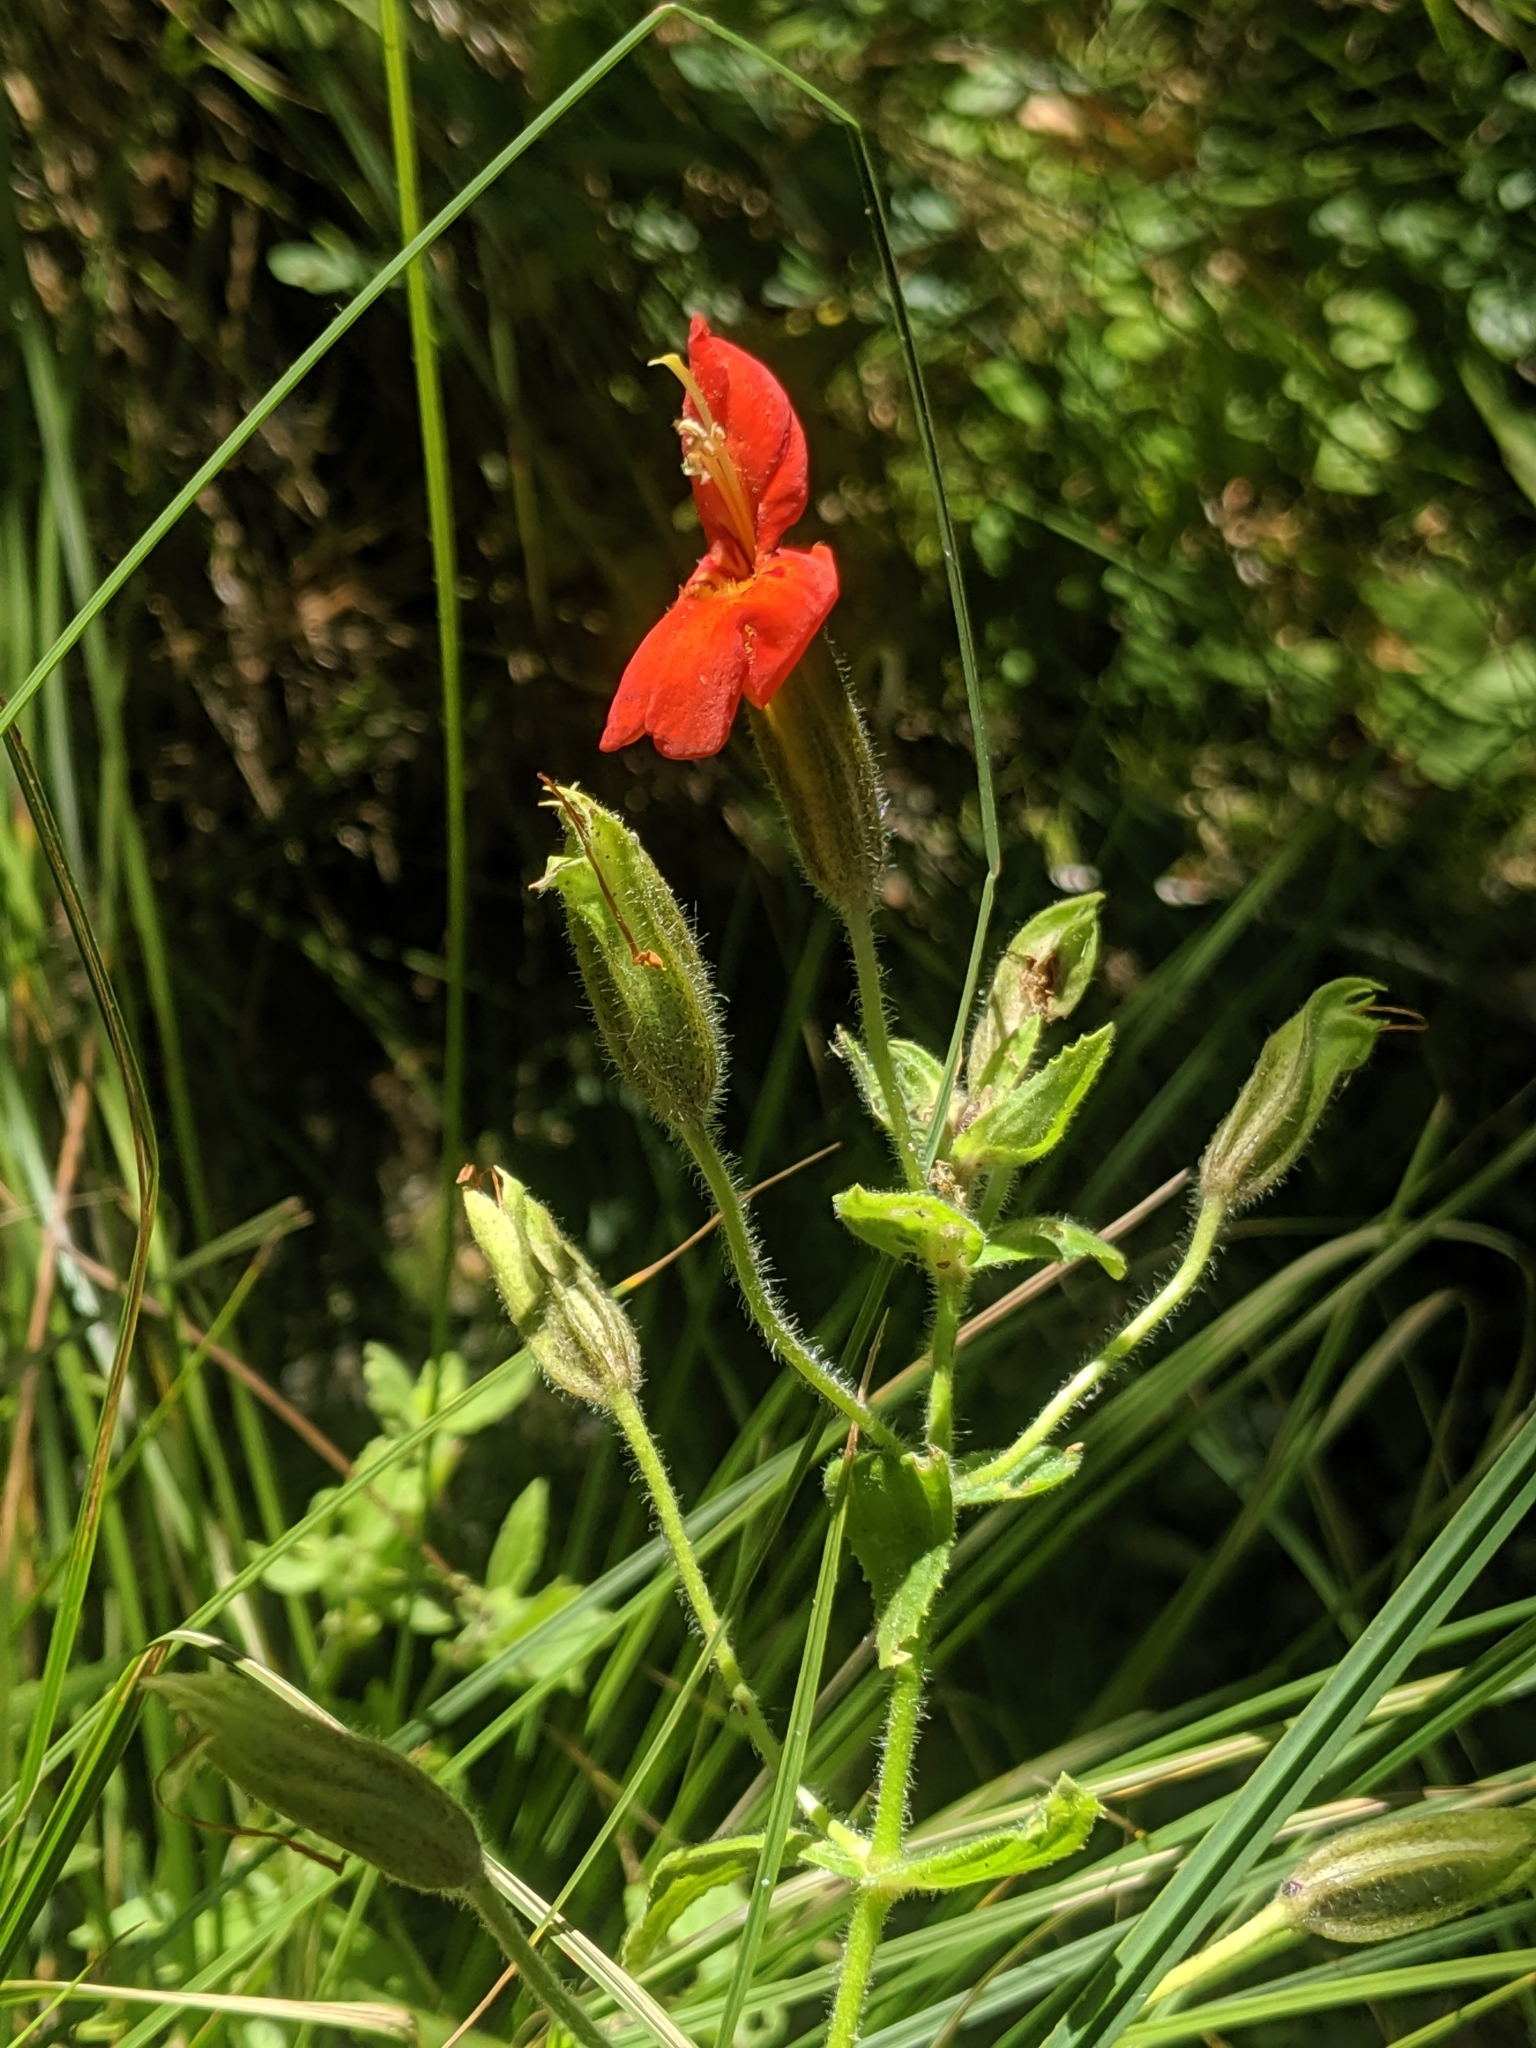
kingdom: Plantae
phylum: Tracheophyta
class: Magnoliopsida
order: Lamiales
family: Phrymaceae
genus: Erythranthe
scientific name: Erythranthe cardinalis
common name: Scarlet monkey-flower
